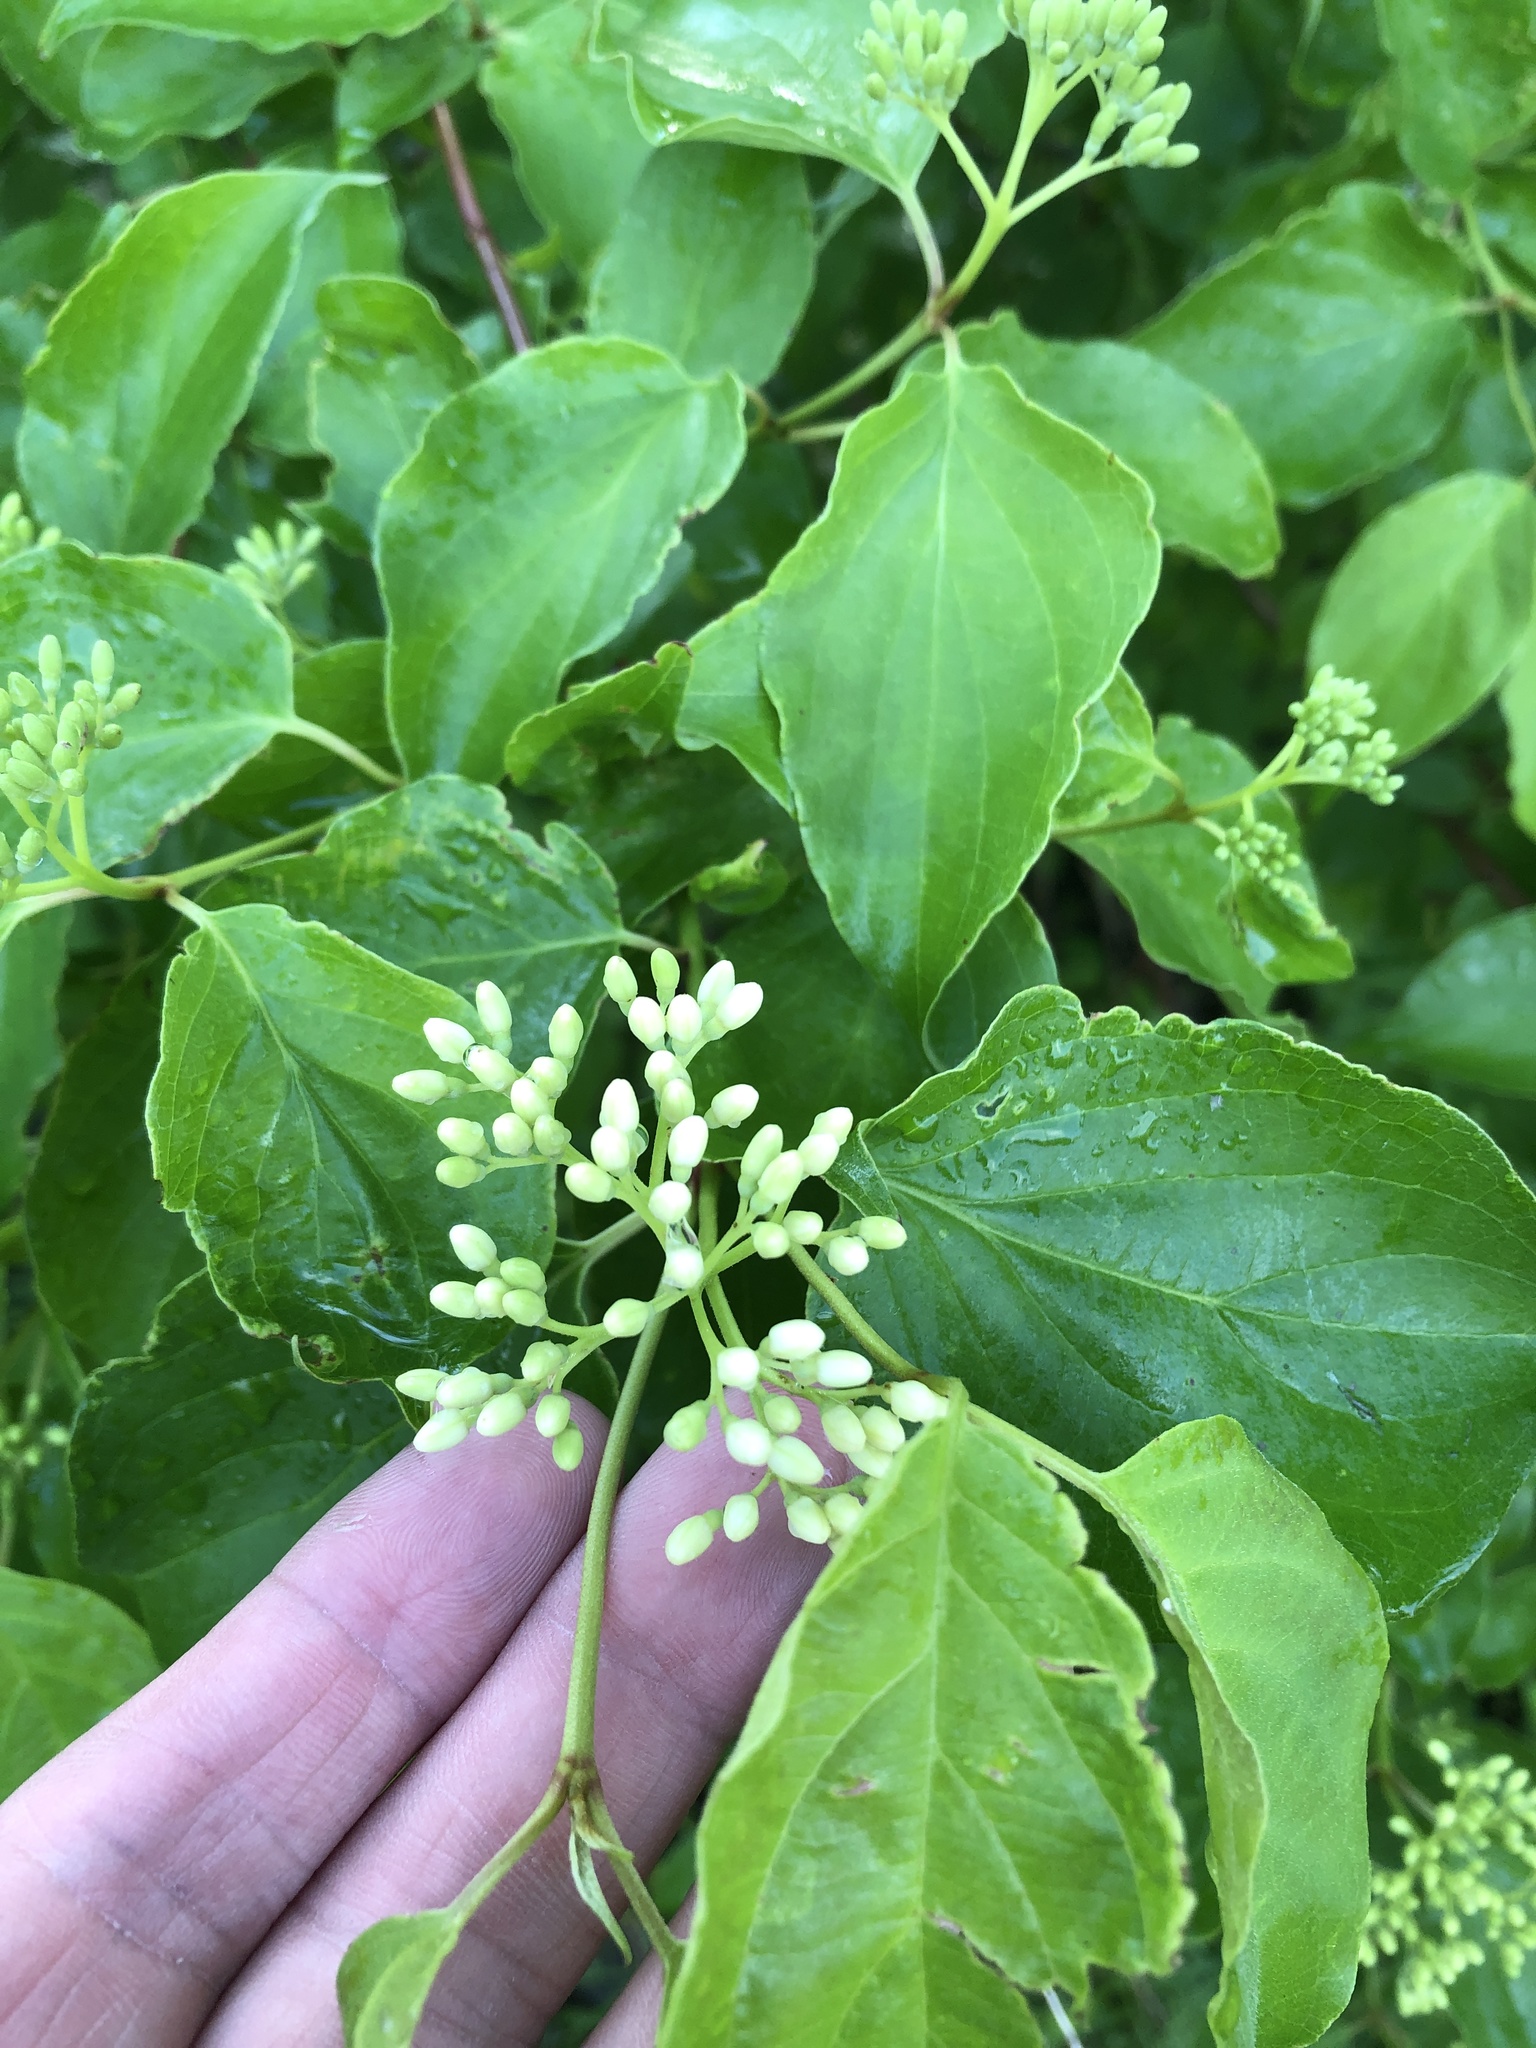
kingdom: Plantae
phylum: Tracheophyta
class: Magnoliopsida
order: Cornales
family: Cornaceae
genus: Cornus
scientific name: Cornus drummondii
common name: Rough-leaf dogwood
